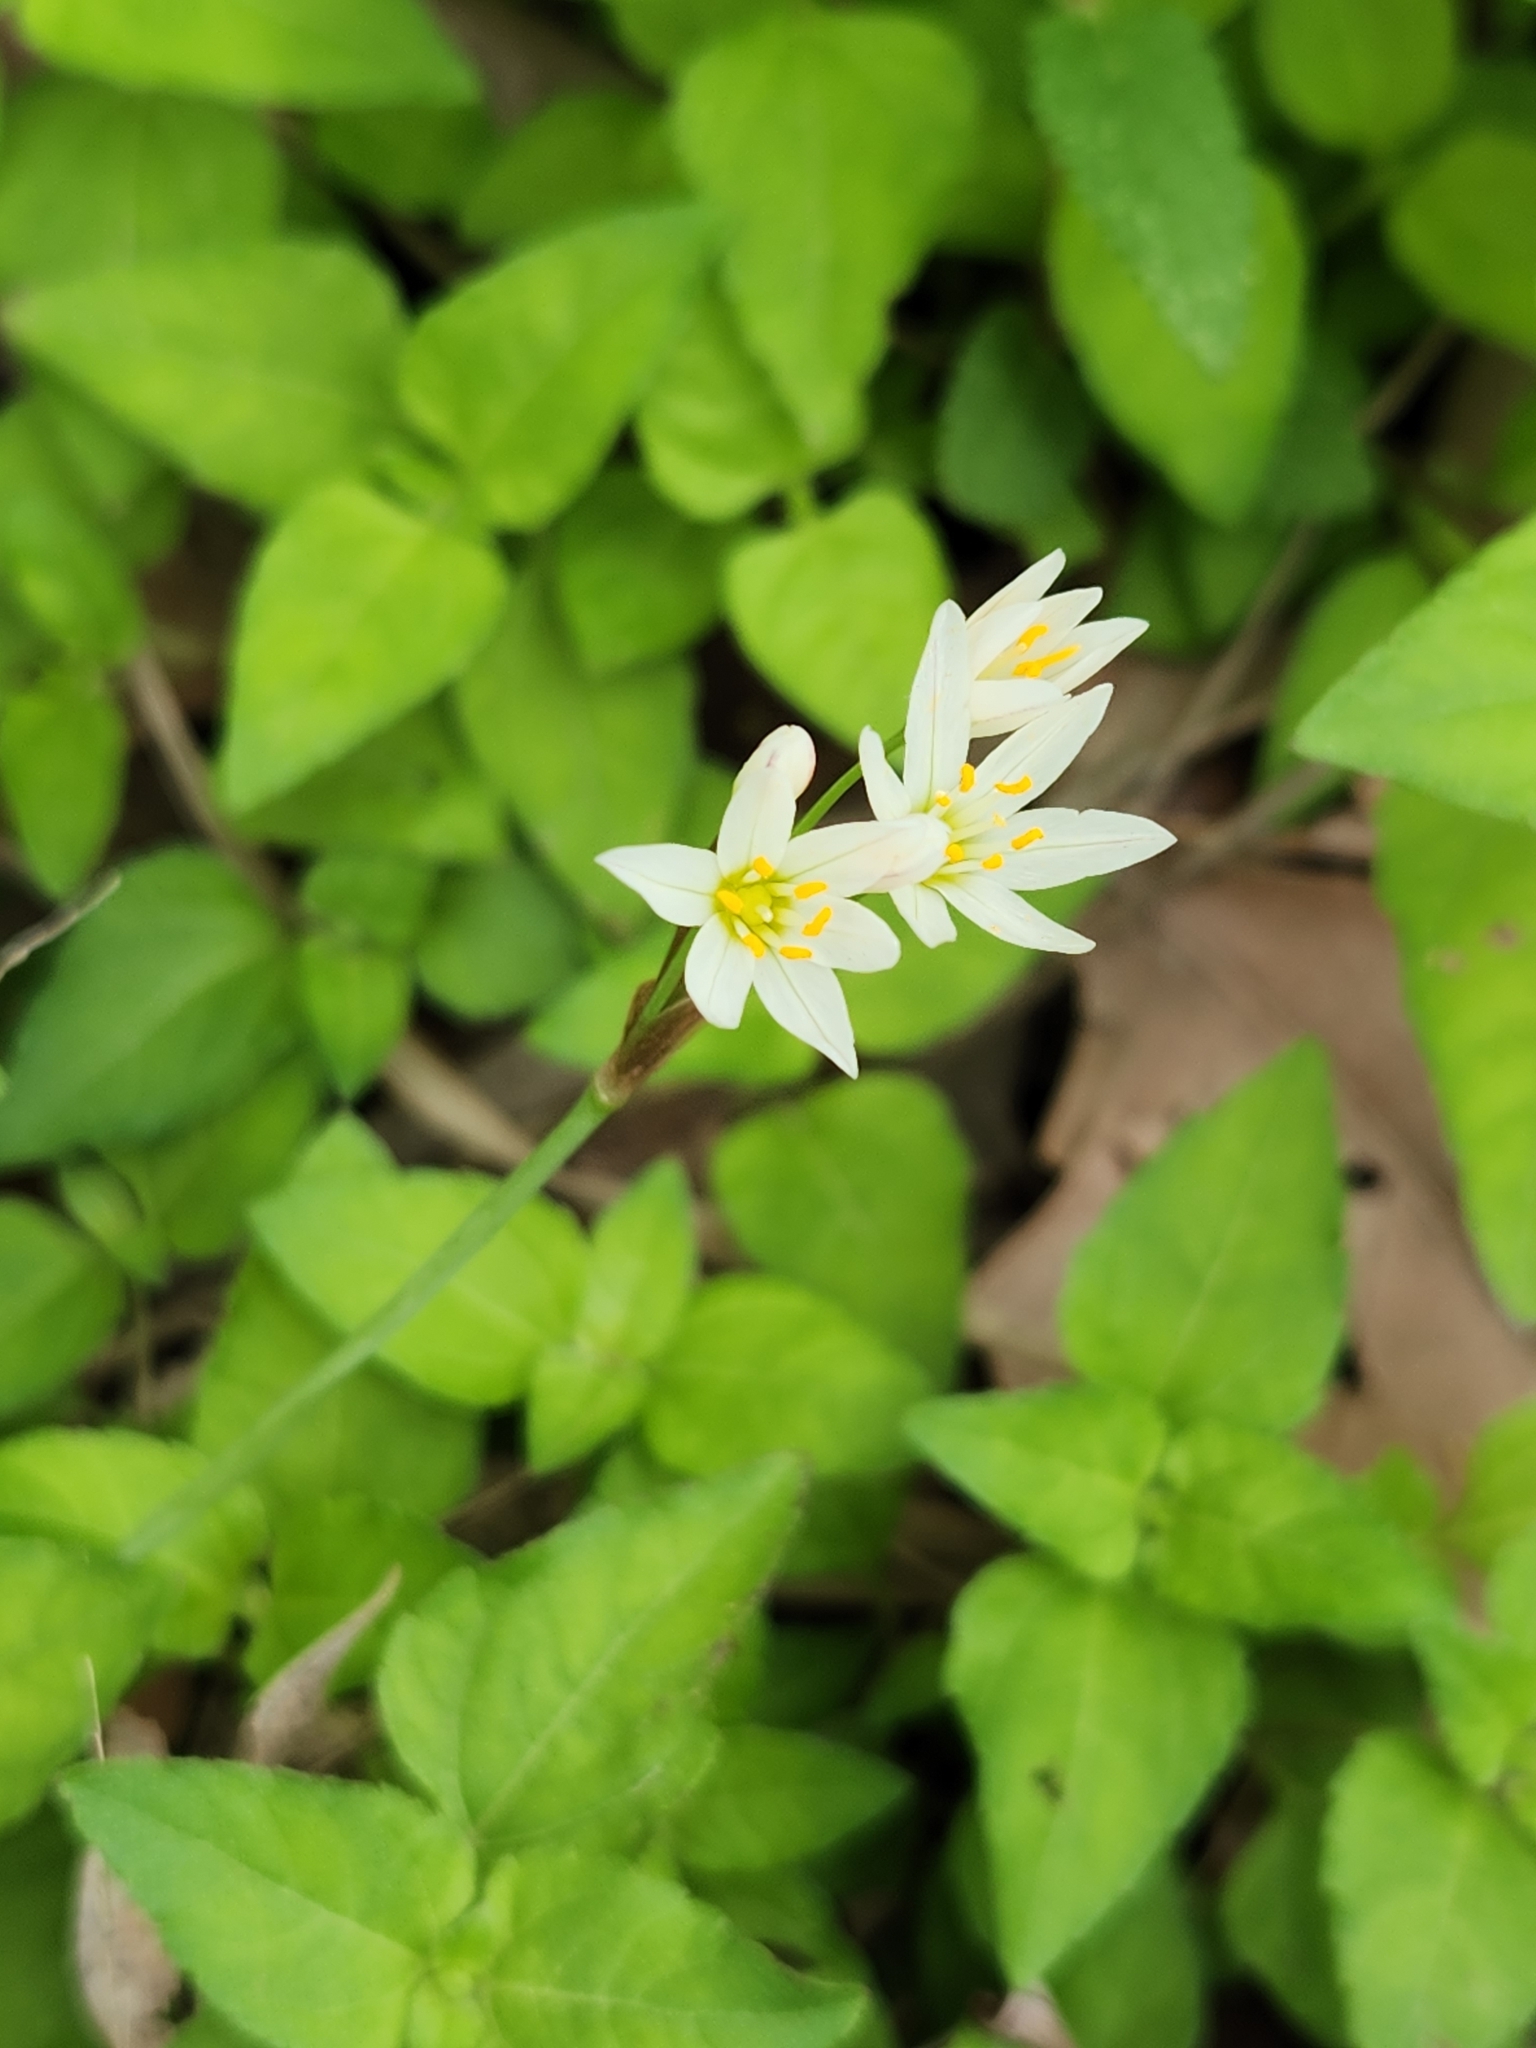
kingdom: Plantae
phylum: Tracheophyta
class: Liliopsida
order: Asparagales
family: Amaryllidaceae
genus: Nothoscordum
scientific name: Nothoscordum bivalve
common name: Crow-poison
